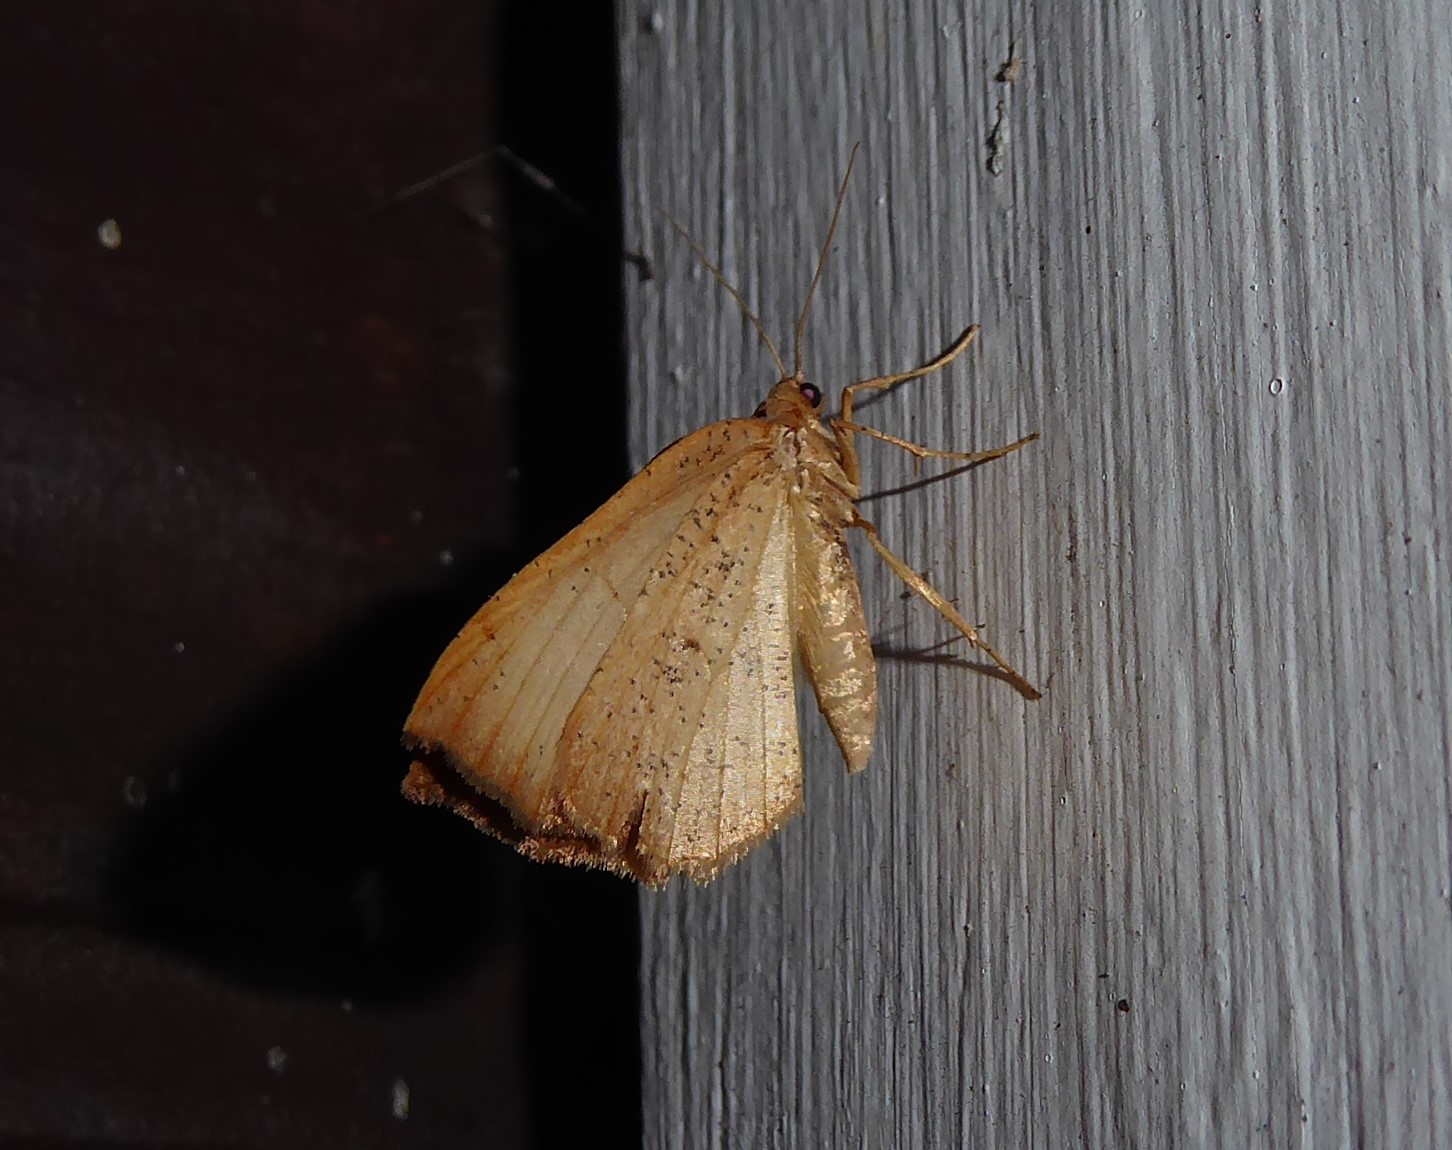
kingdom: Animalia
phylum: Arthropoda
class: Insecta
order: Lepidoptera
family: Geometridae
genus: Sestra
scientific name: Sestra humeraria
